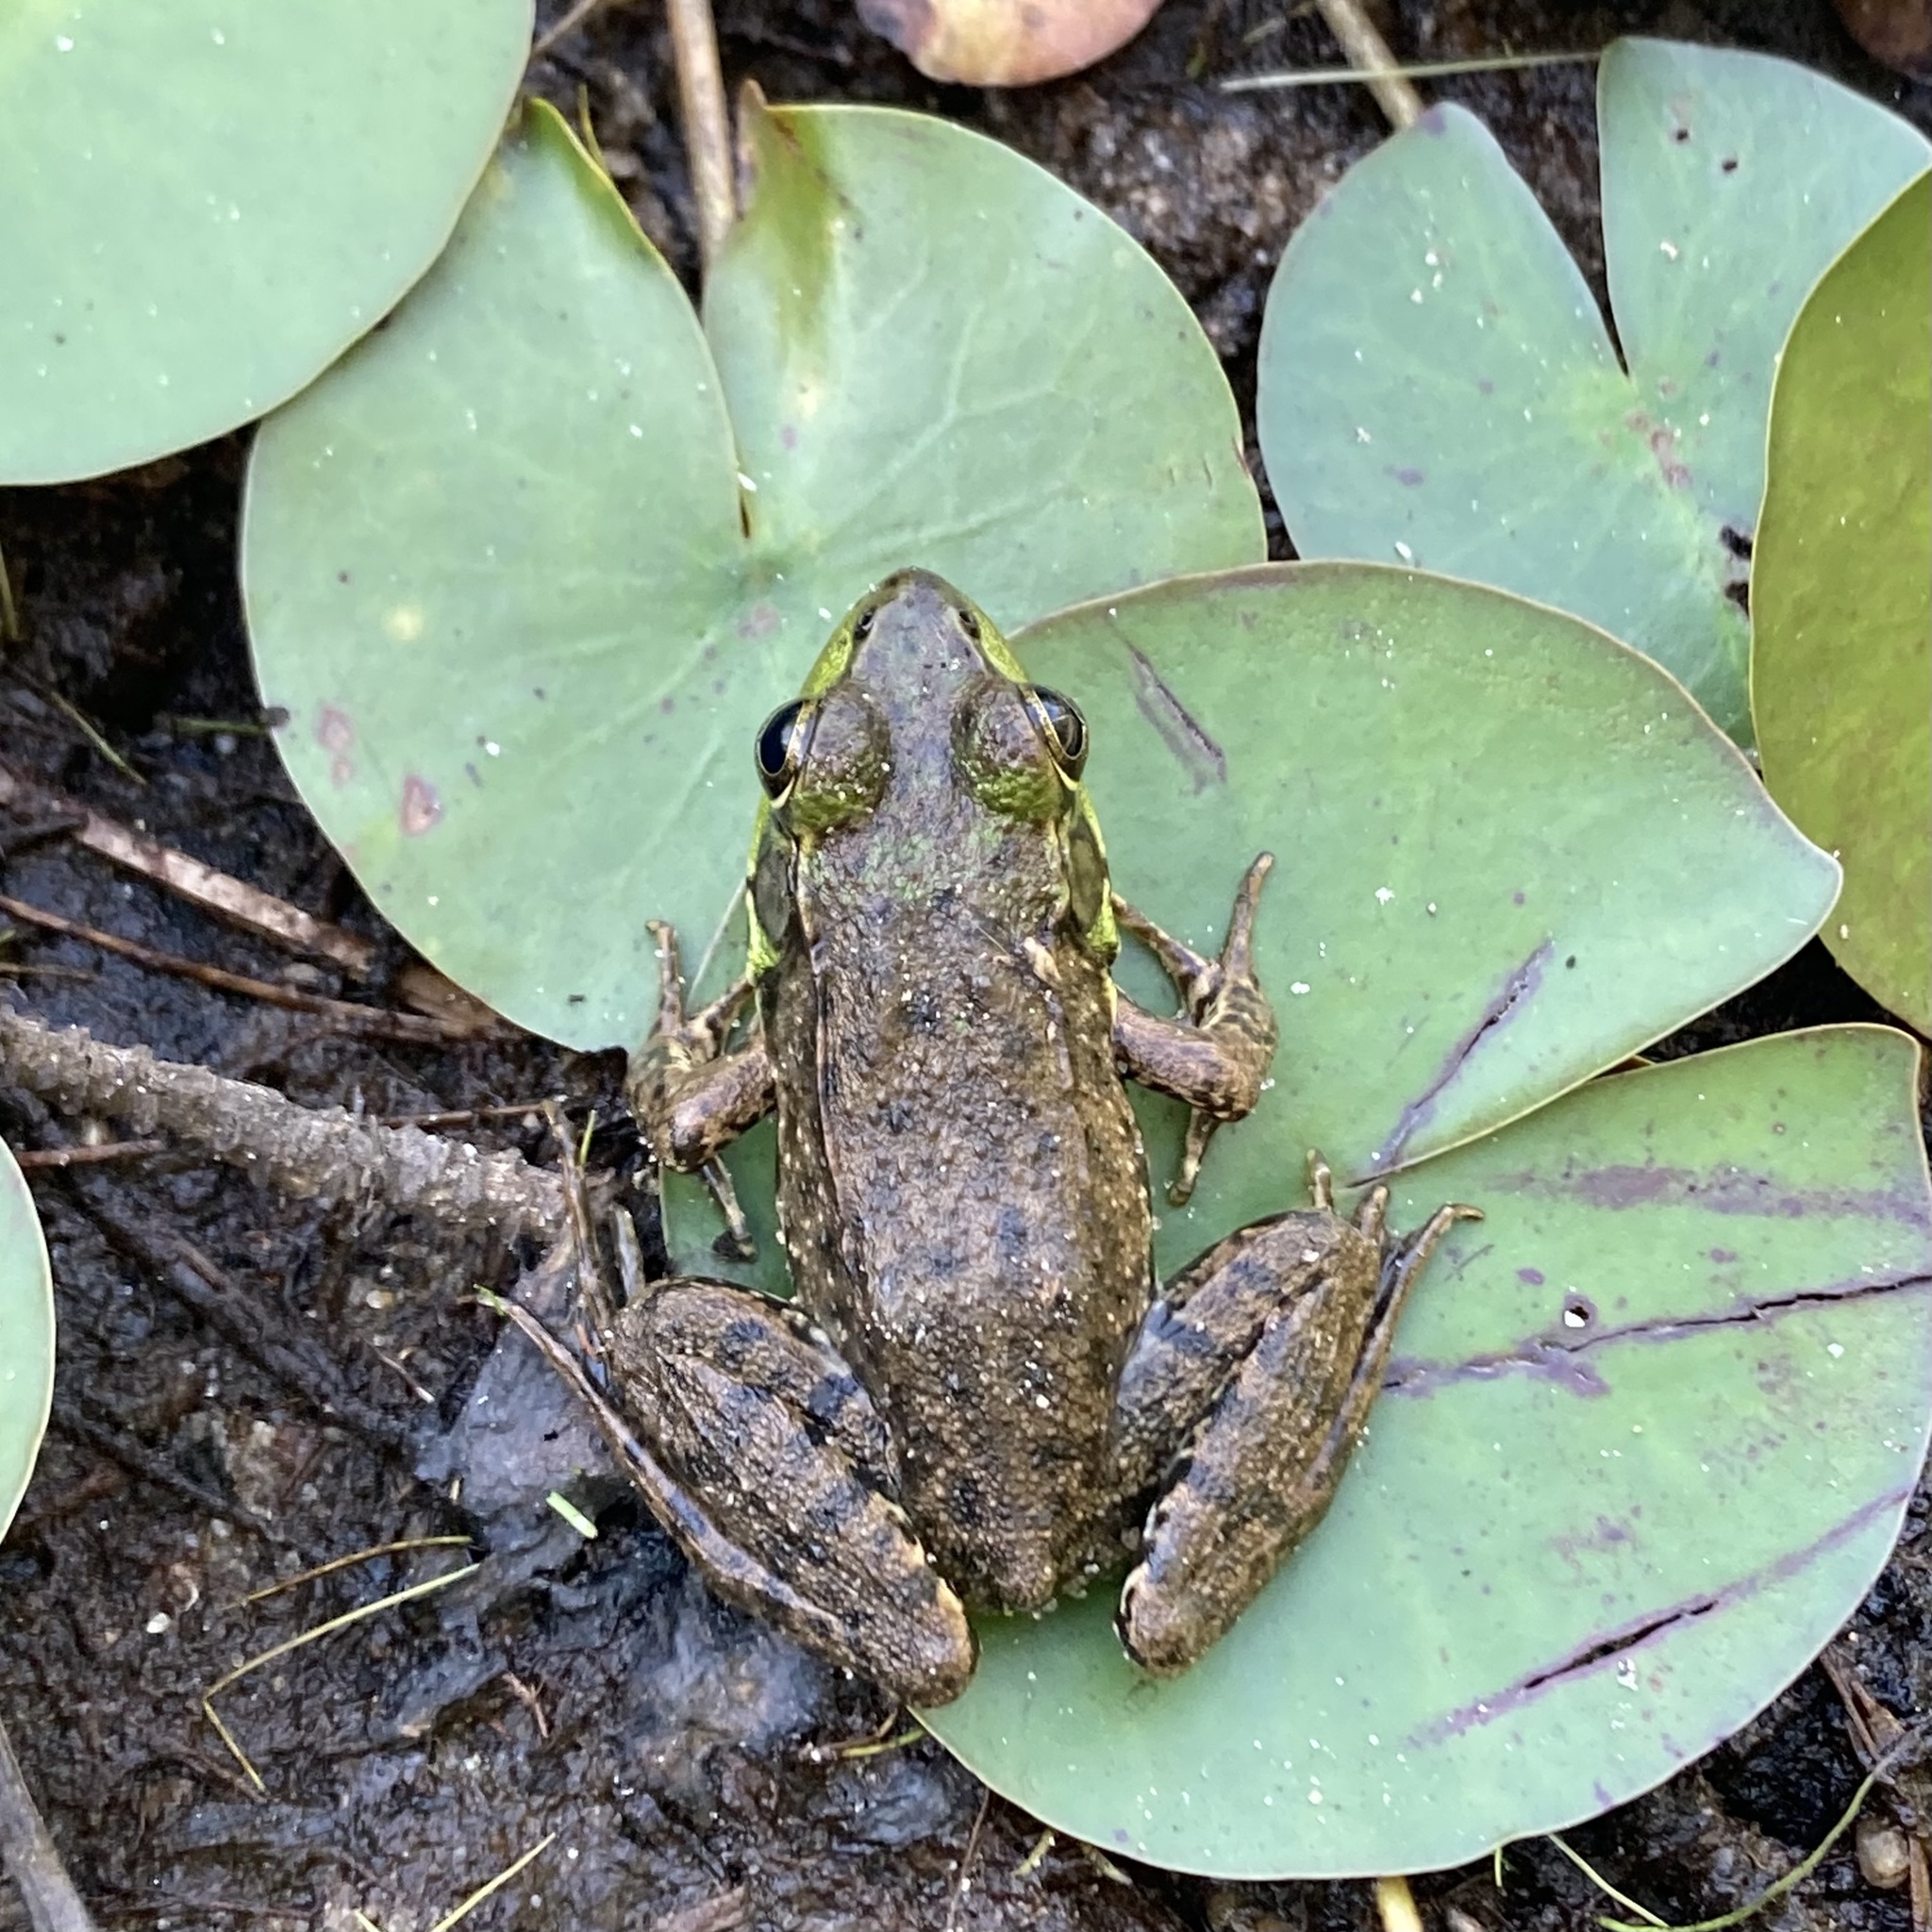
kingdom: Animalia
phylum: Chordata
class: Amphibia
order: Anura
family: Ranidae
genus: Lithobates
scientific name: Lithobates clamitans
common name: Green frog
